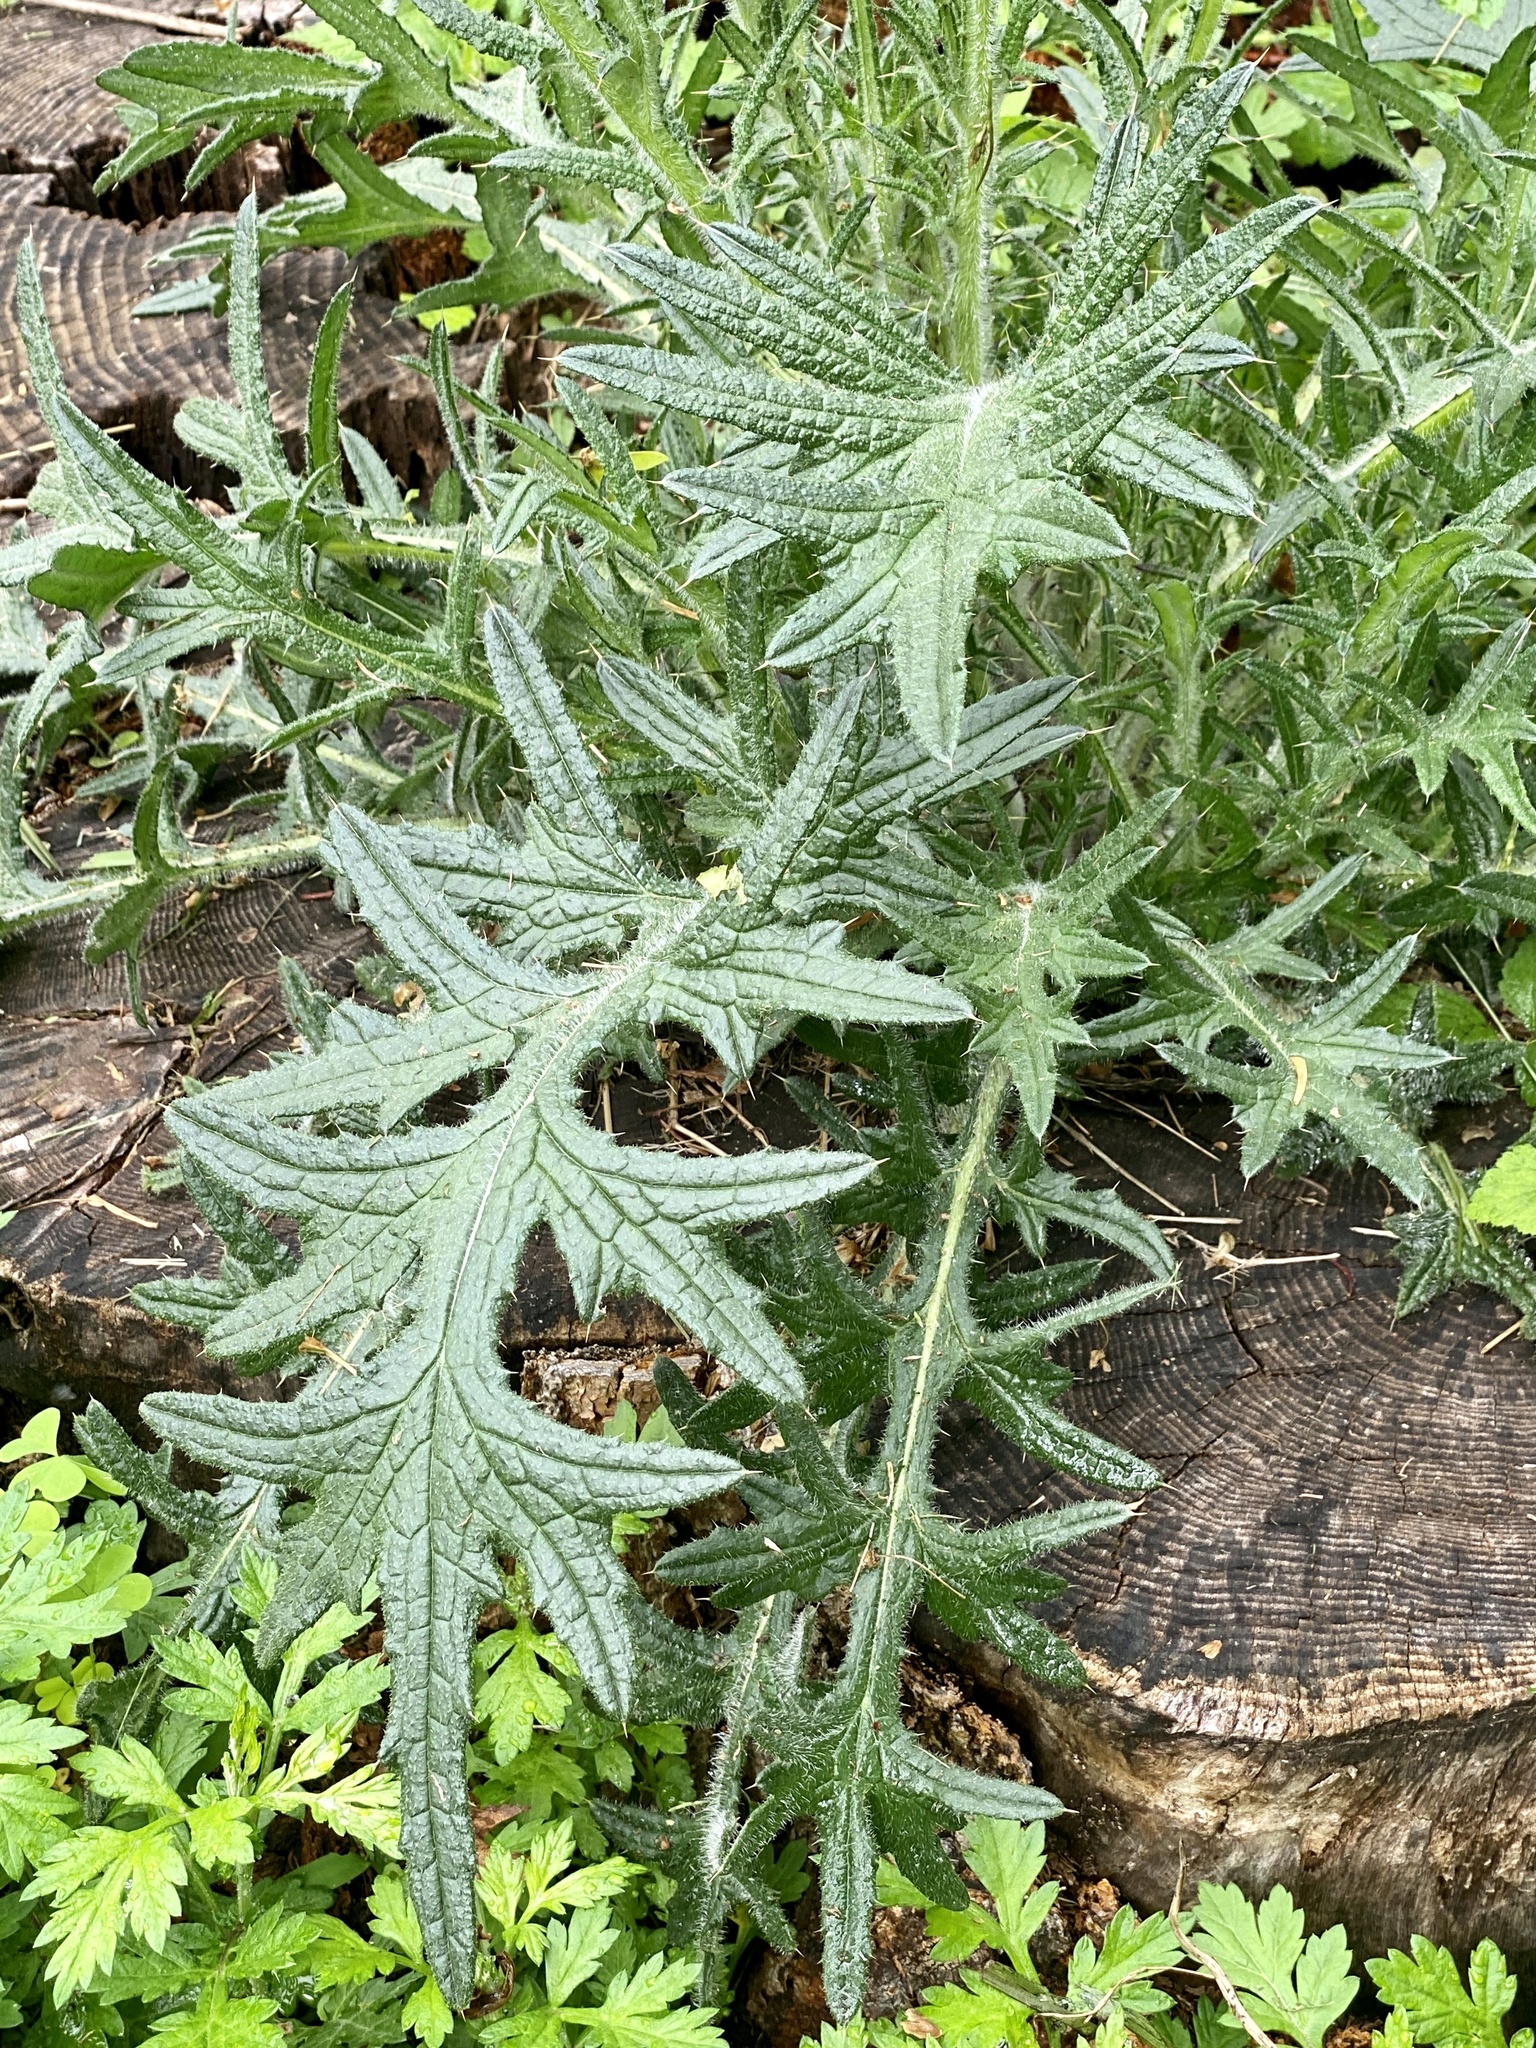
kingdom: Plantae
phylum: Tracheophyta
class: Magnoliopsida
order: Asterales
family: Asteraceae
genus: Cirsium
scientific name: Cirsium vulgare
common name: Bull thistle
